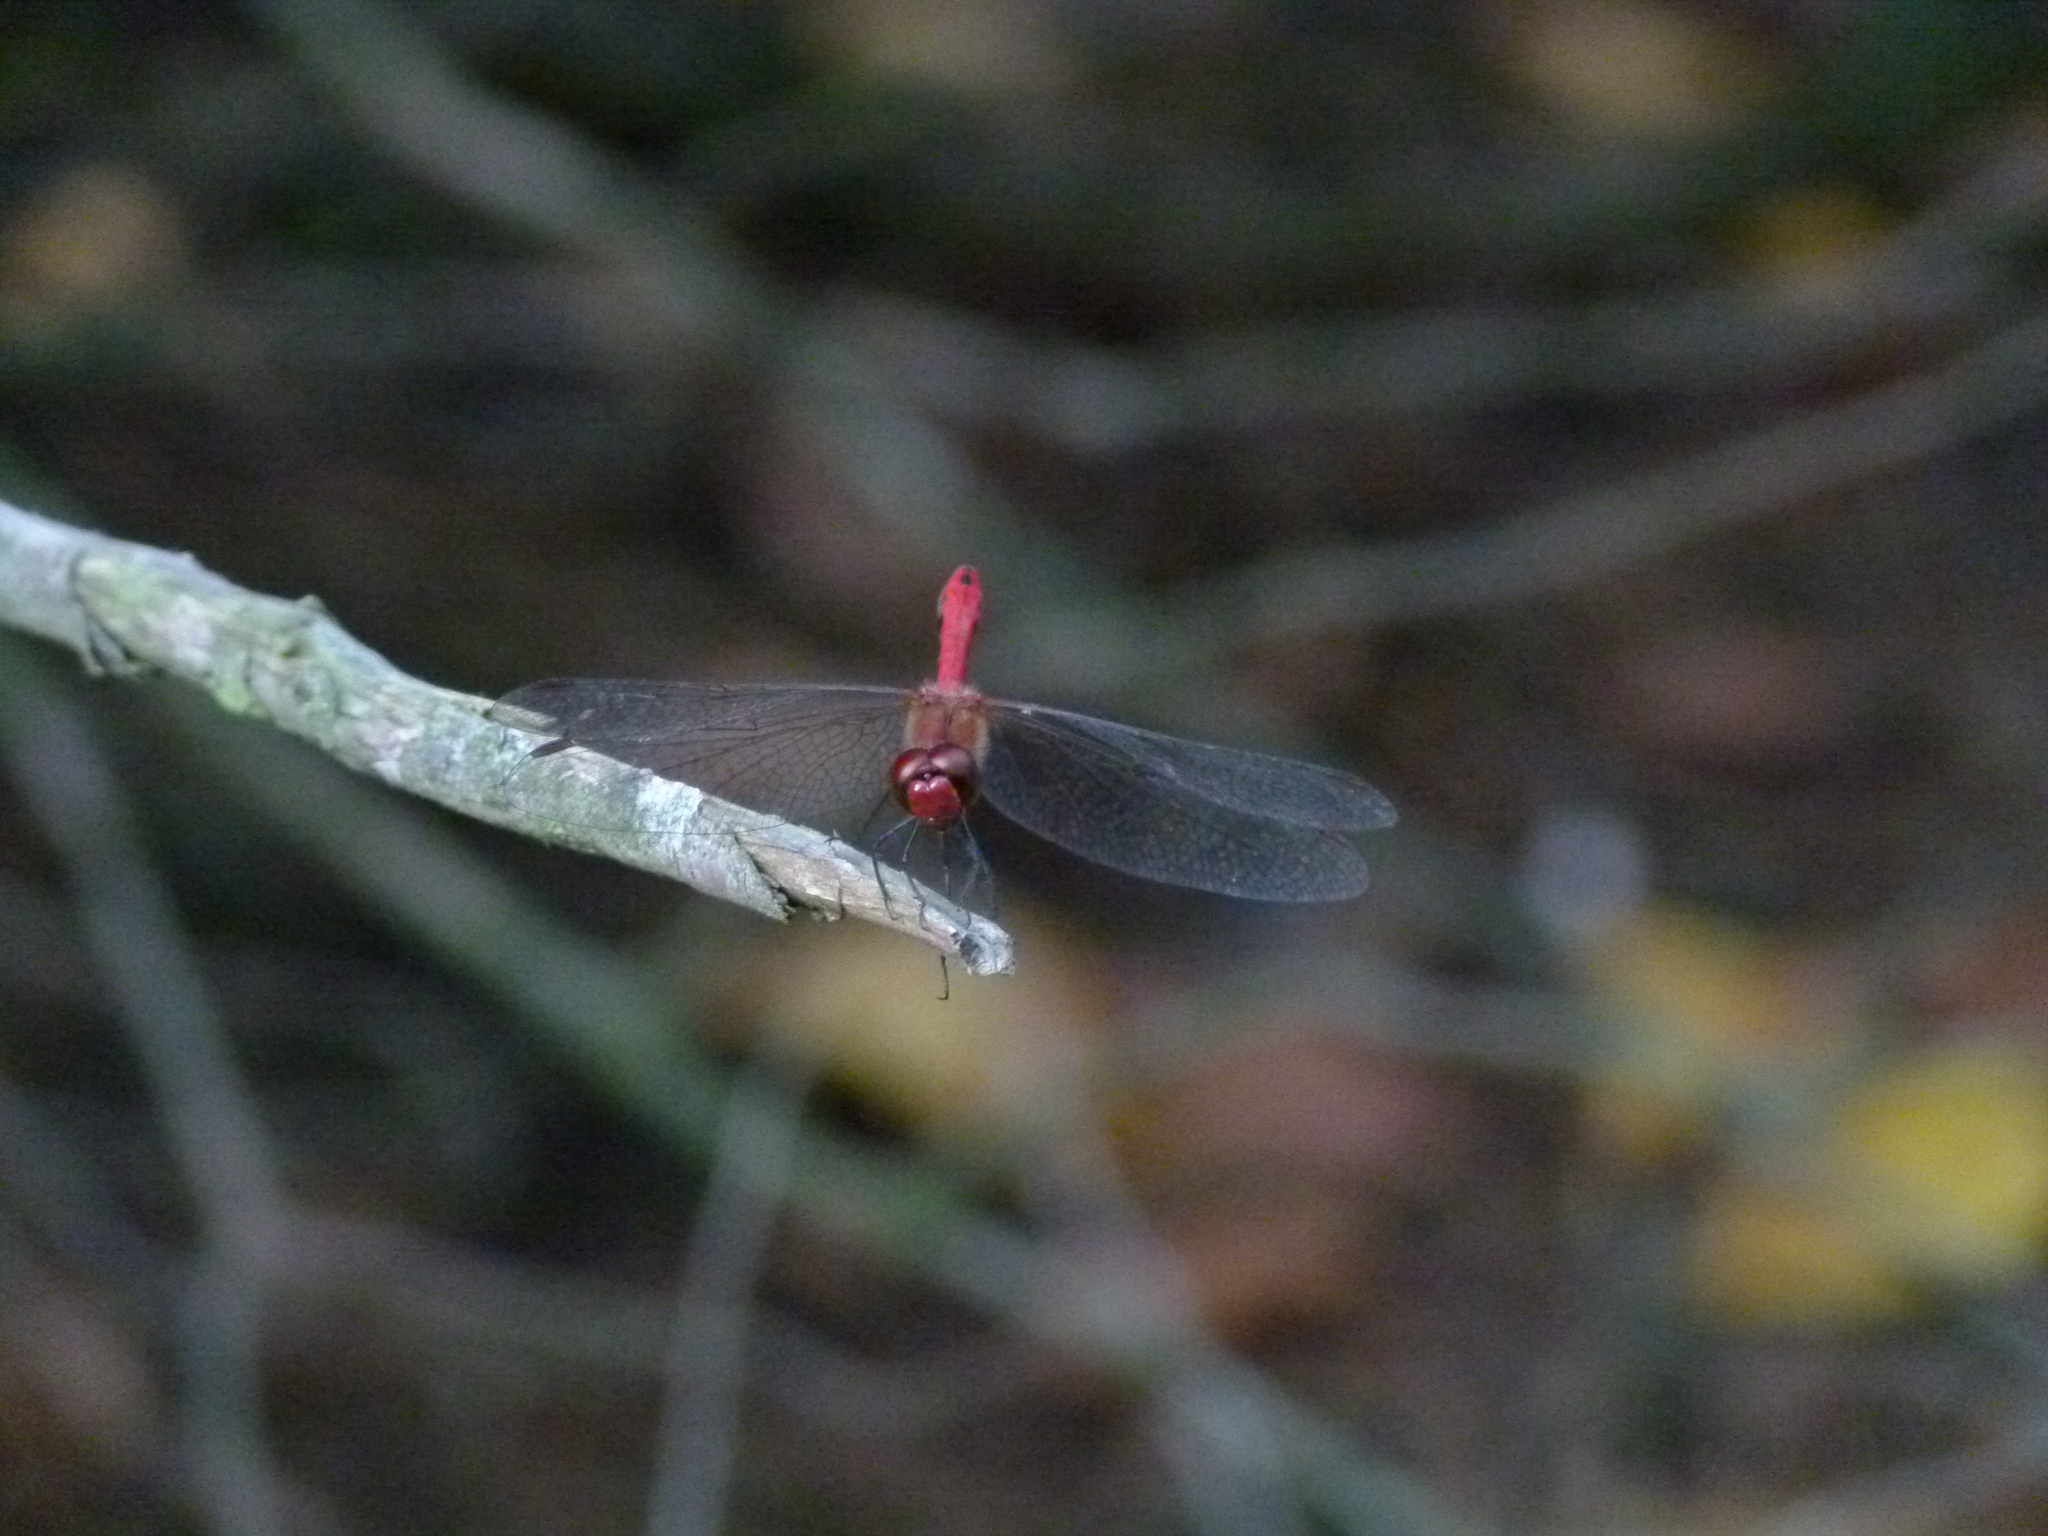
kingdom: Animalia
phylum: Arthropoda
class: Insecta
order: Odonata
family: Libellulidae
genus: Sympetrum
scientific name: Sympetrum sanguineum
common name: Ruddy darter
